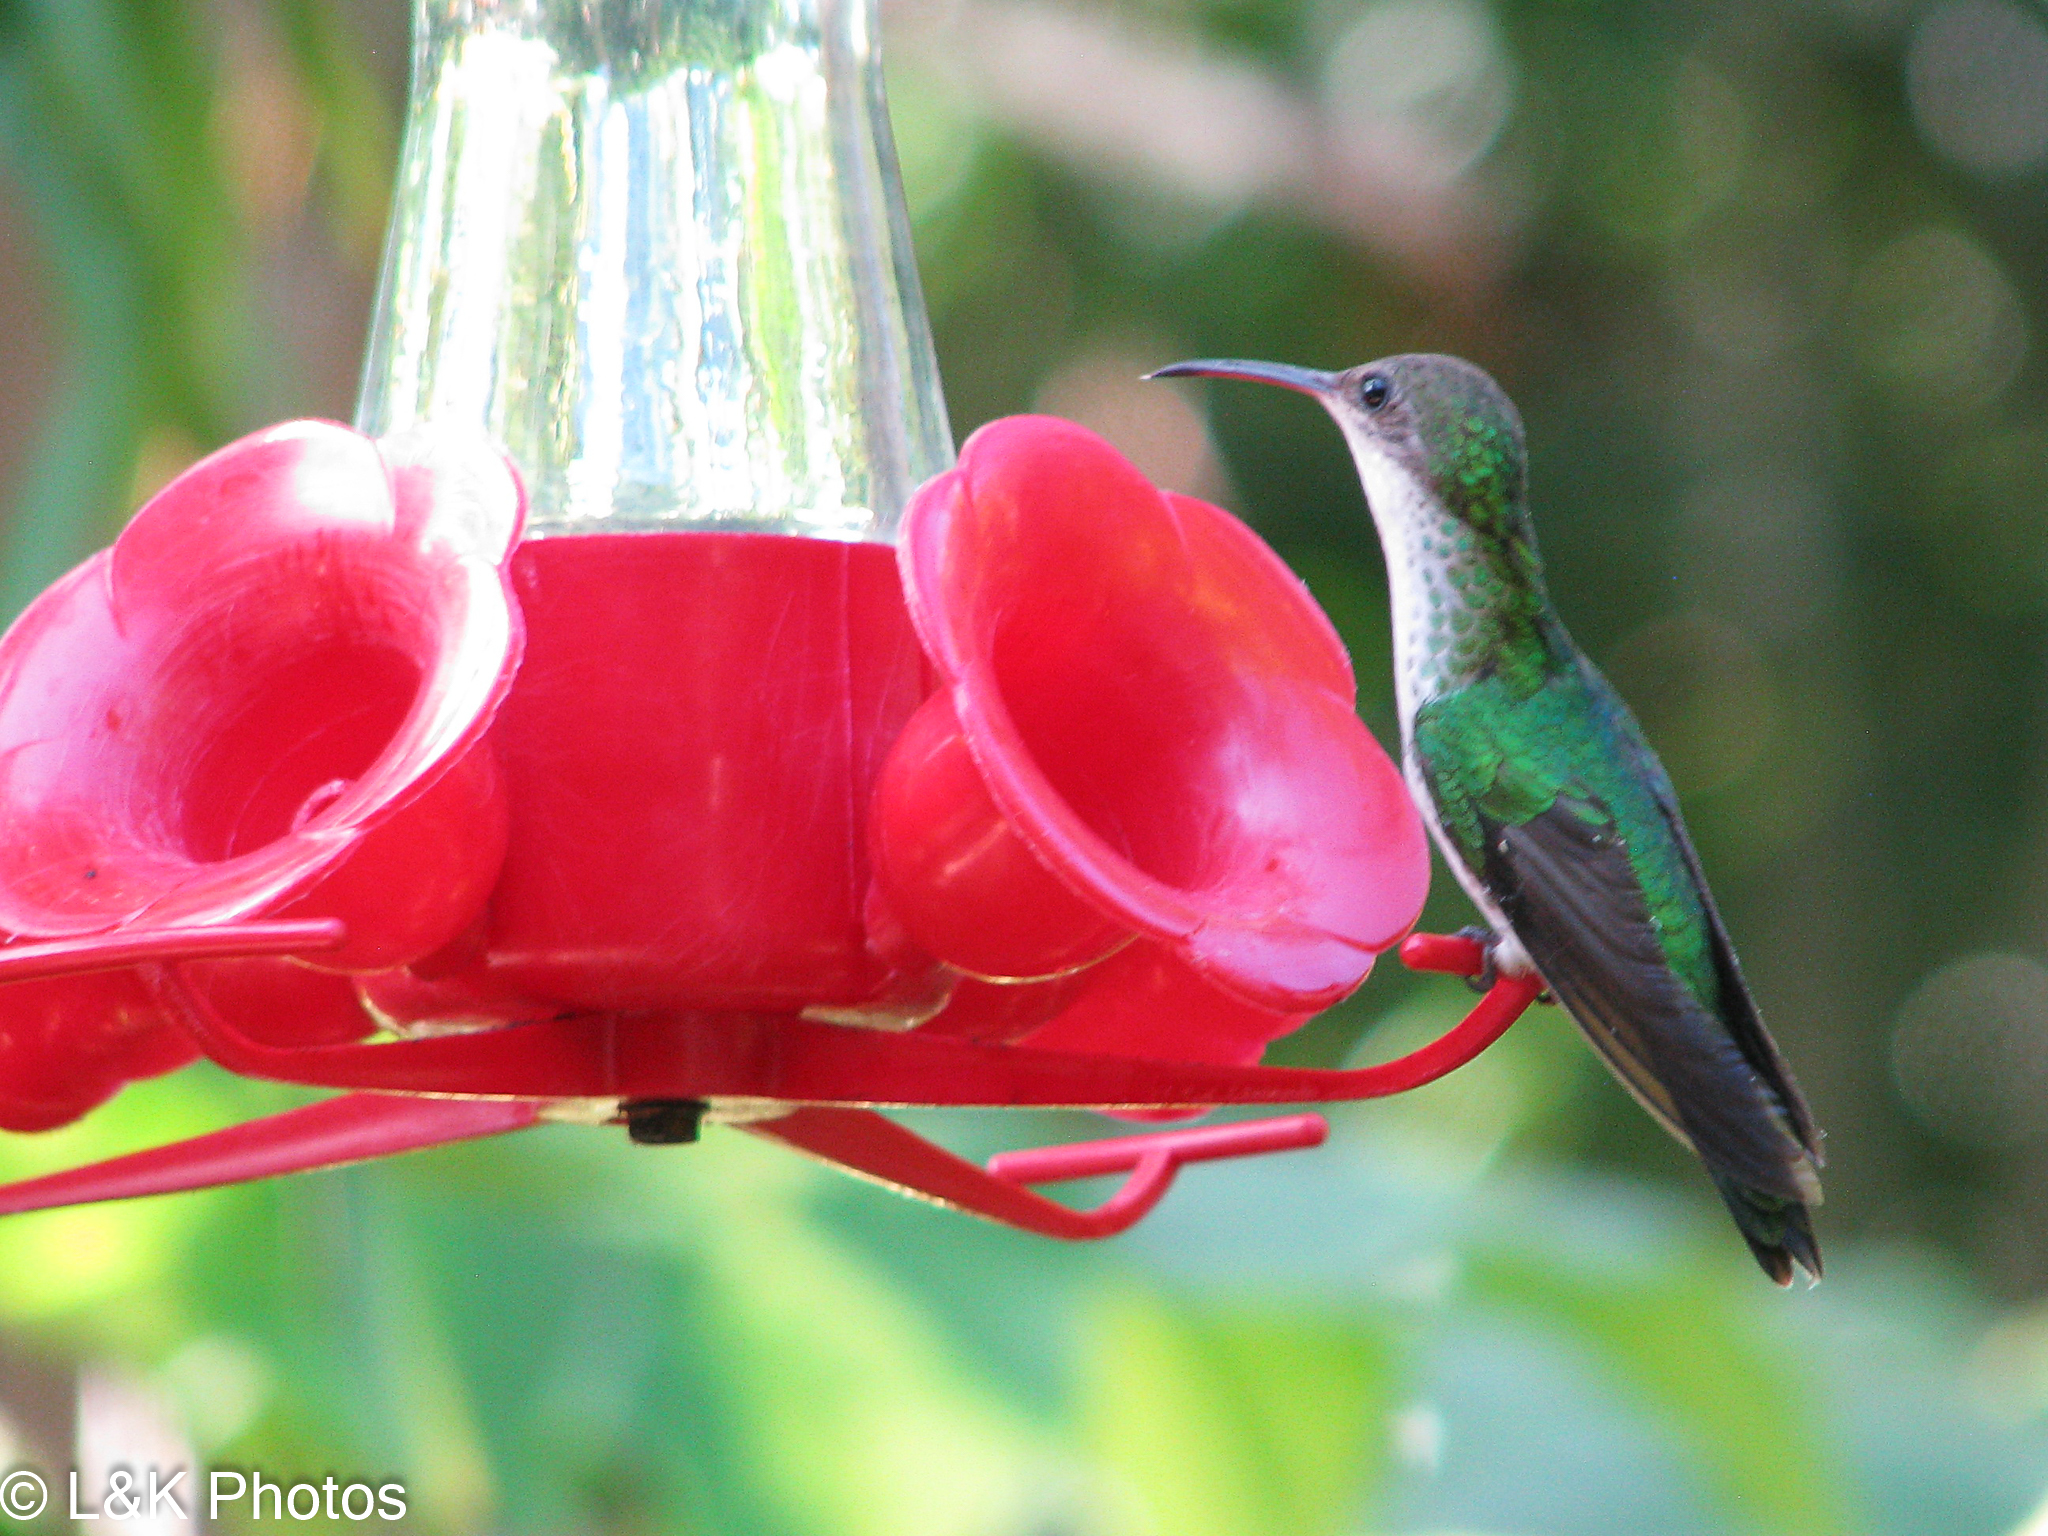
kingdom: Animalia
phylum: Chordata
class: Aves
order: Apodiformes
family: Trochilidae
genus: Trochilus
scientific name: Trochilus polytmus
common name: Red-billed streamertail
